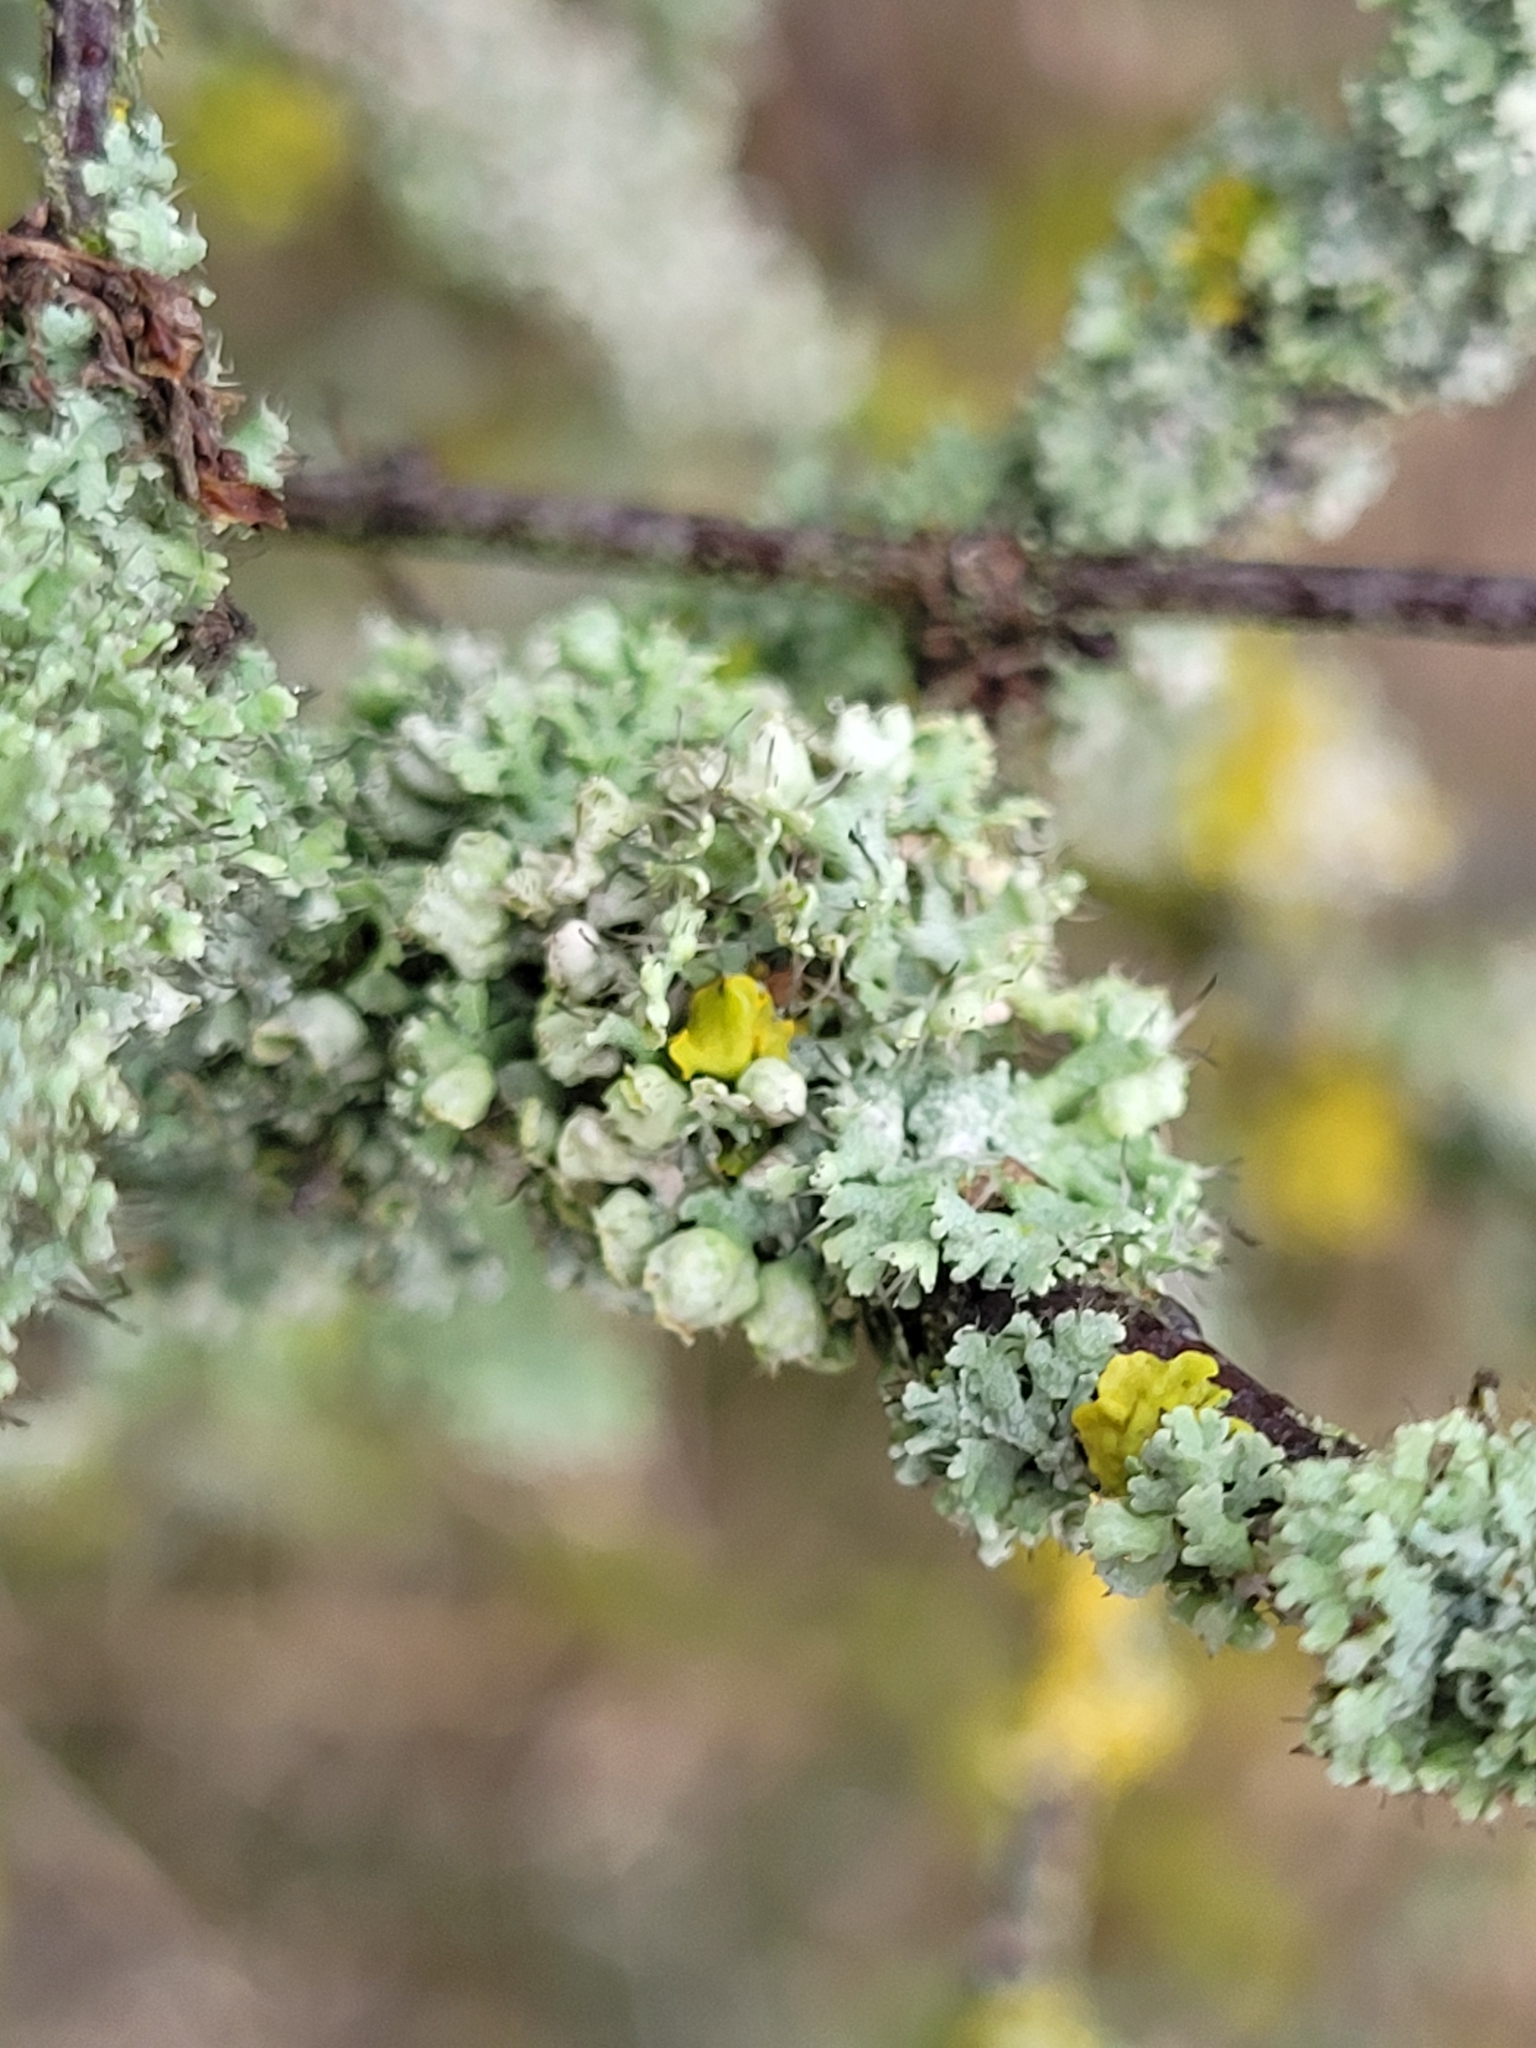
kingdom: Fungi
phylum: Ascomycota
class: Lecanoromycetes
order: Caliciales
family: Physciaceae
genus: Physcia
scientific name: Physcia adscendens
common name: Hooded rosette lichen
